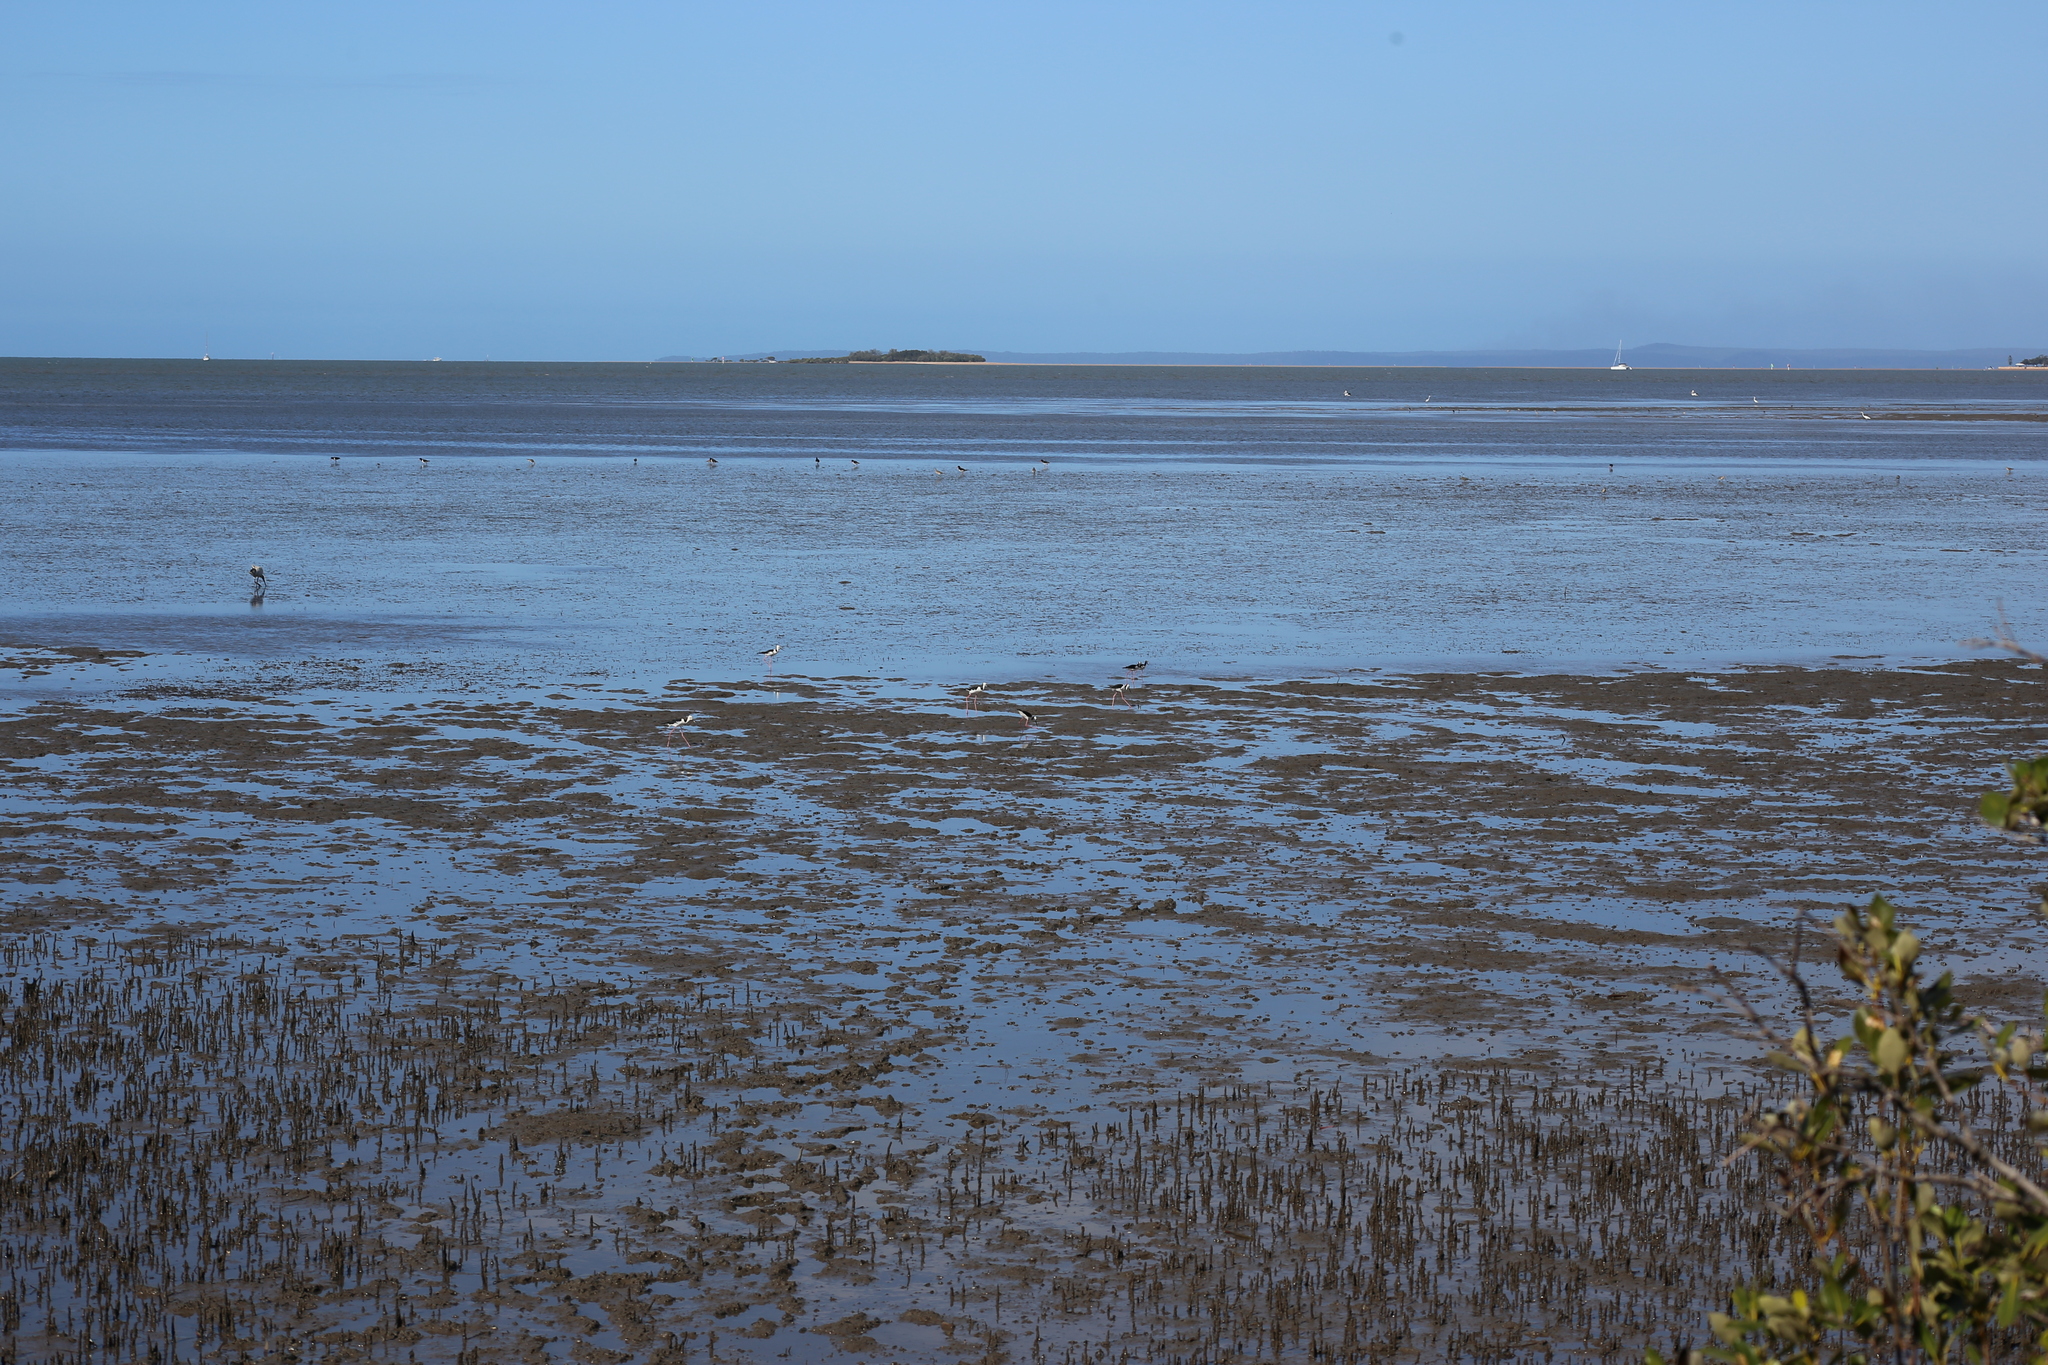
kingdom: Animalia
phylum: Chordata
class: Aves
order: Charadriiformes
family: Recurvirostridae
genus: Himantopus
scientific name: Himantopus leucocephalus
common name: White-headed stilt
